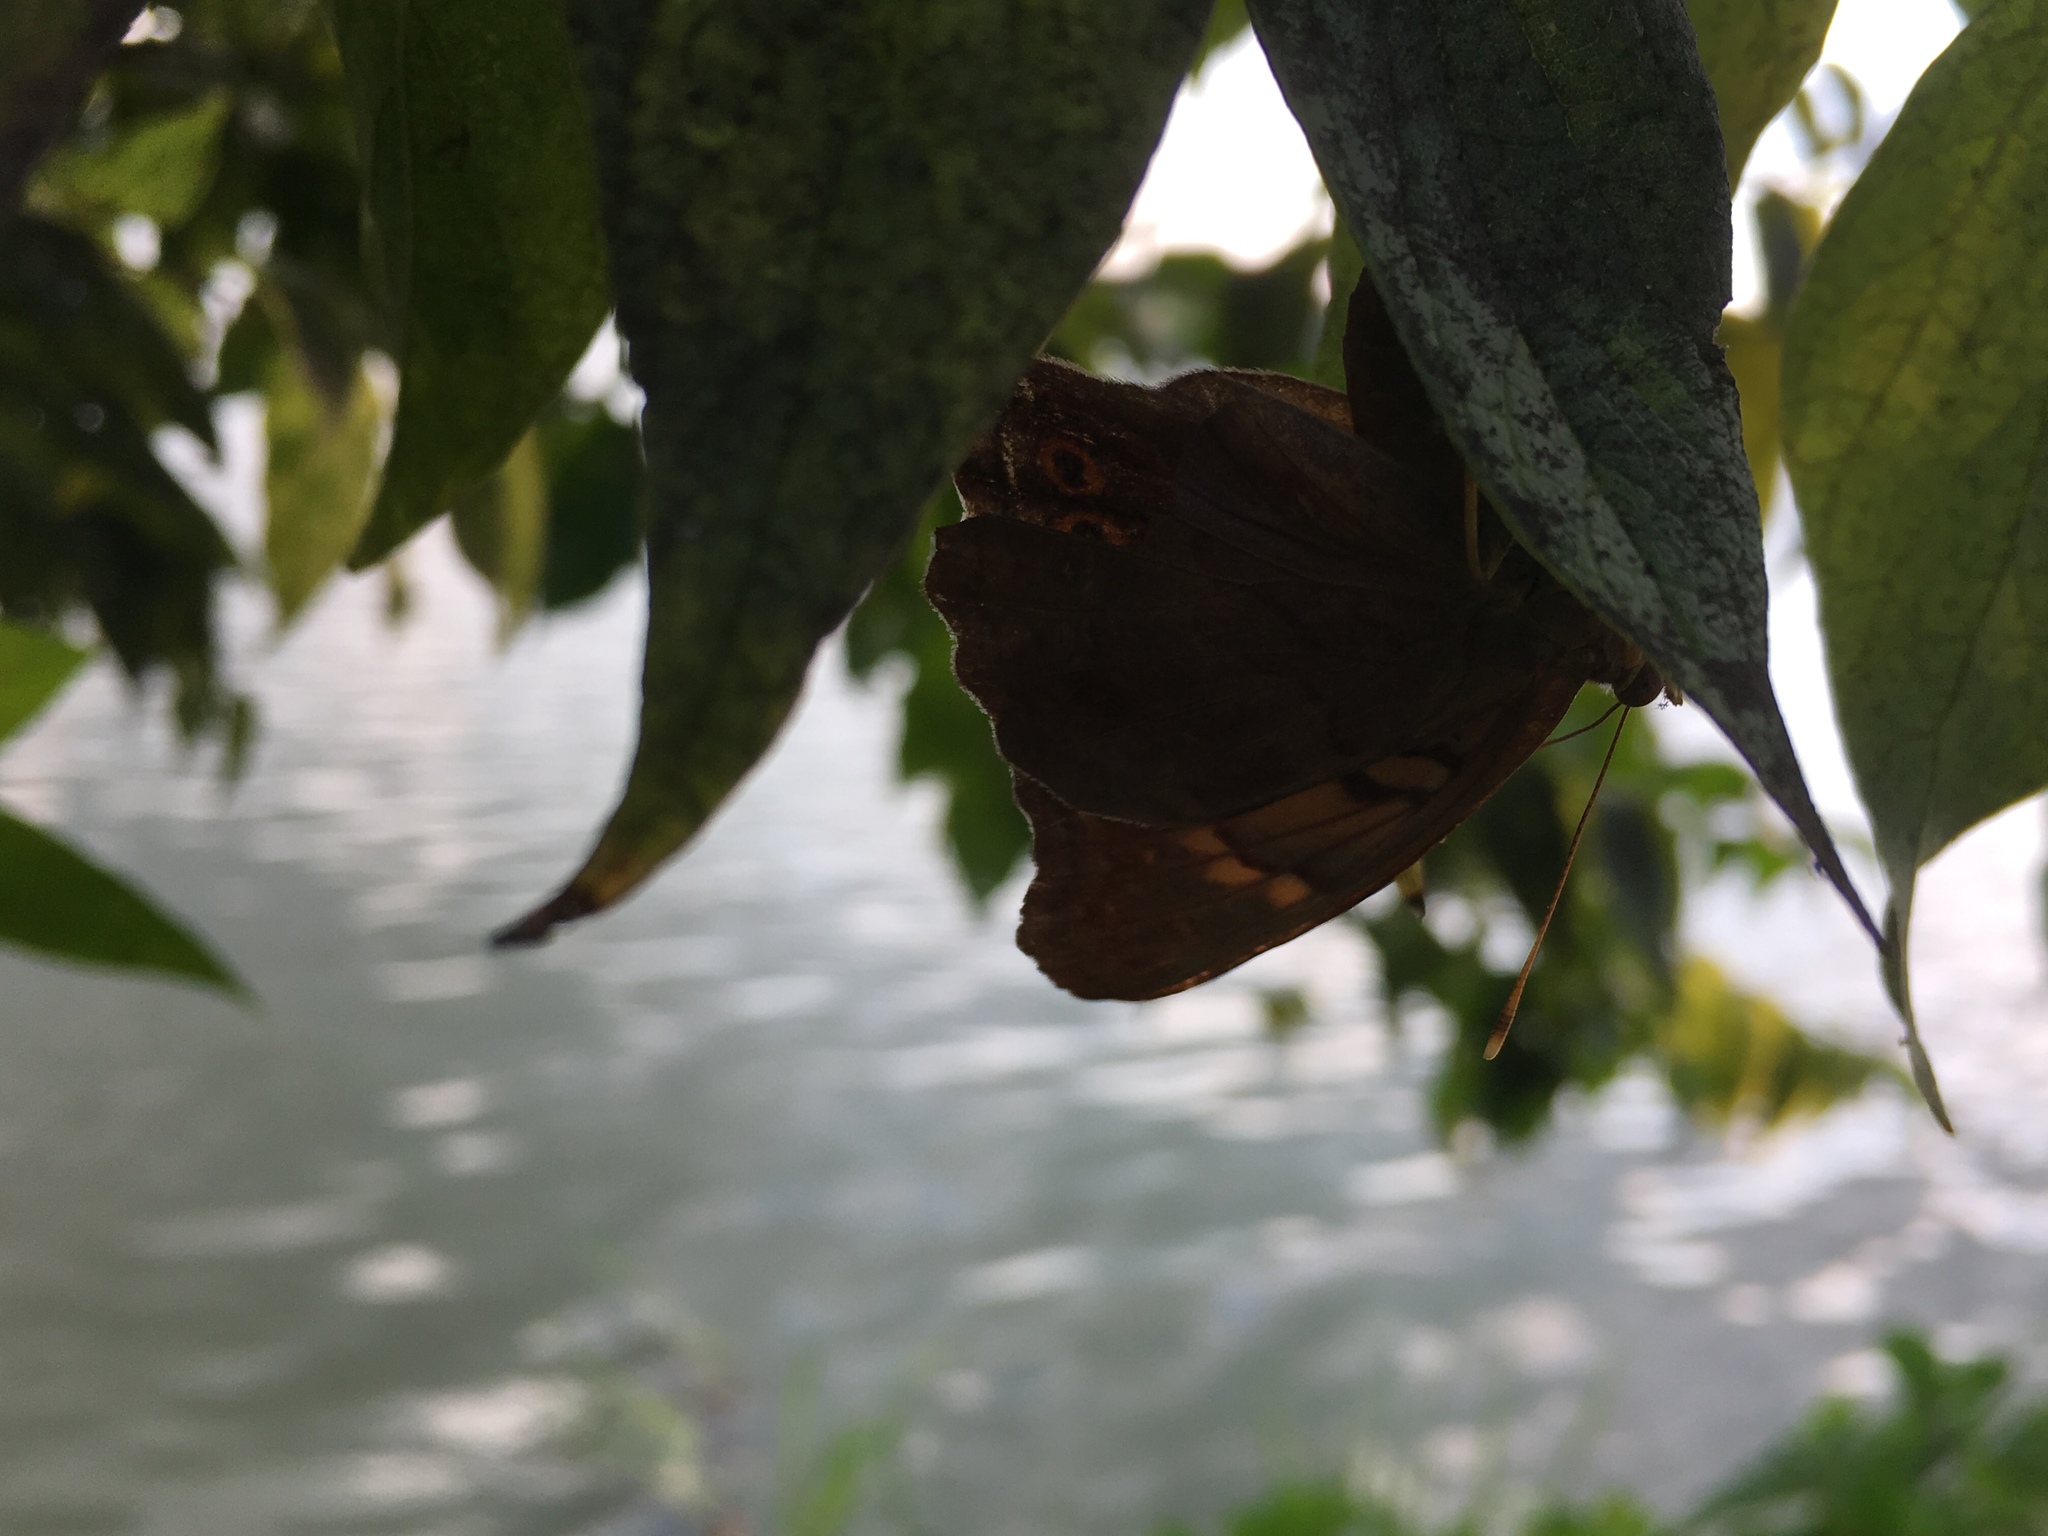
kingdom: Animalia
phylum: Arthropoda
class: Insecta
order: Lepidoptera
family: Nymphalidae
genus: Asterocampa
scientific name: Asterocampa clyton
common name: Tawny emperor
